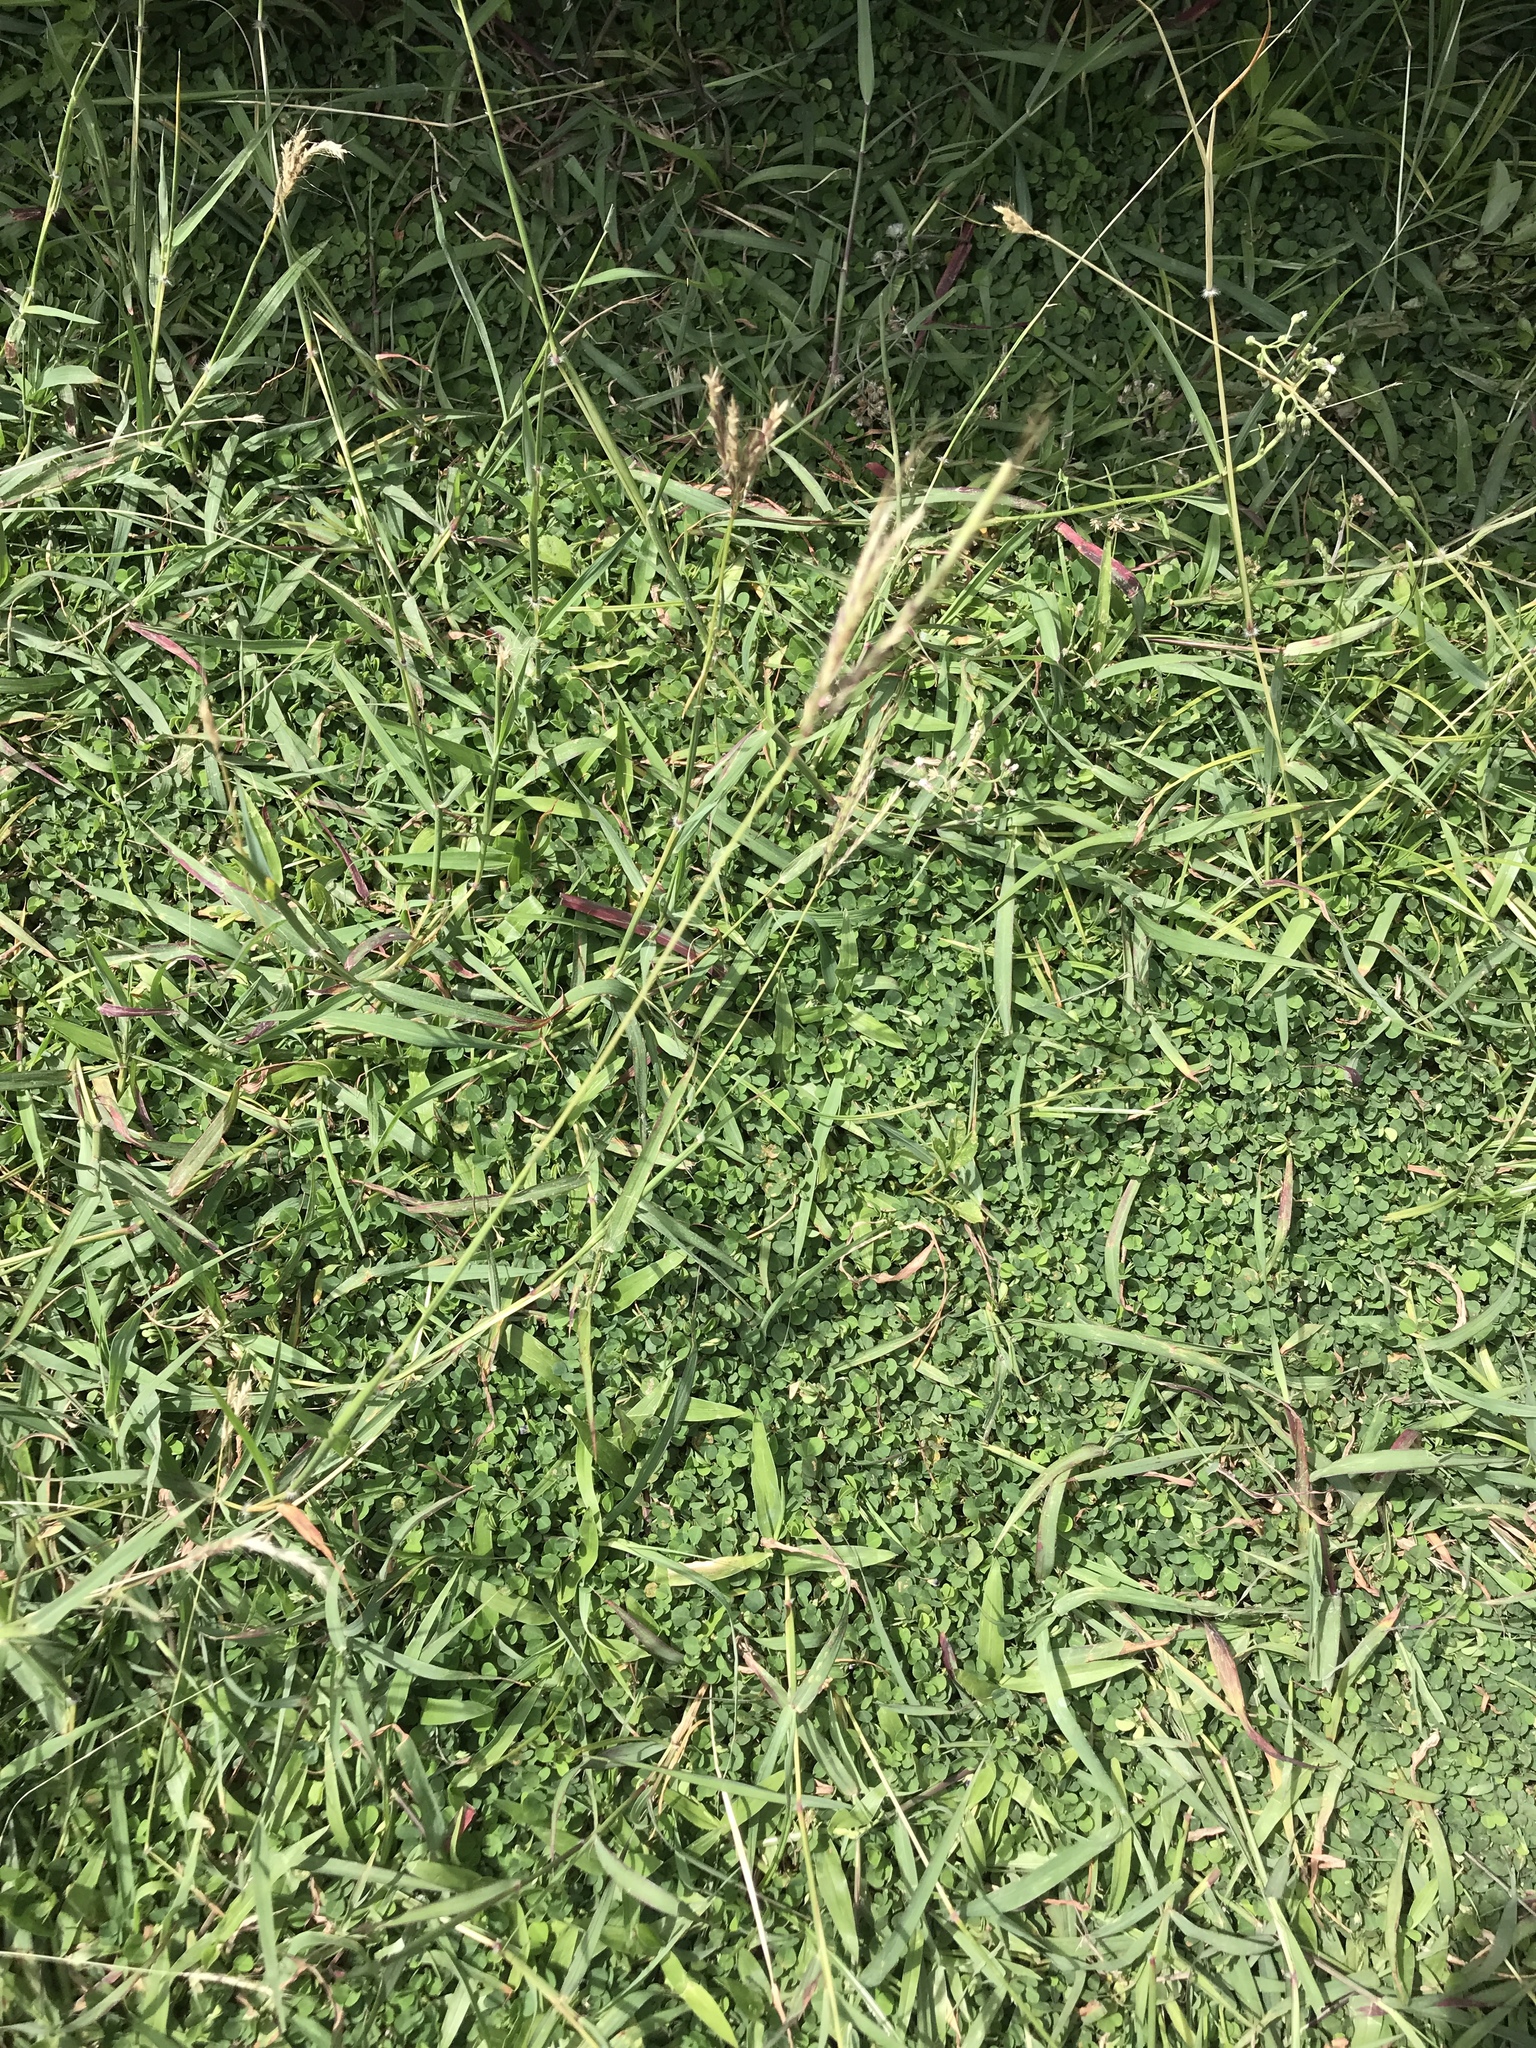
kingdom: Plantae
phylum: Tracheophyta
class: Liliopsida
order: Poales
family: Poaceae
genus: Dichanthium
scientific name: Dichanthium annulatum
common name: Kleberg's bluestem
